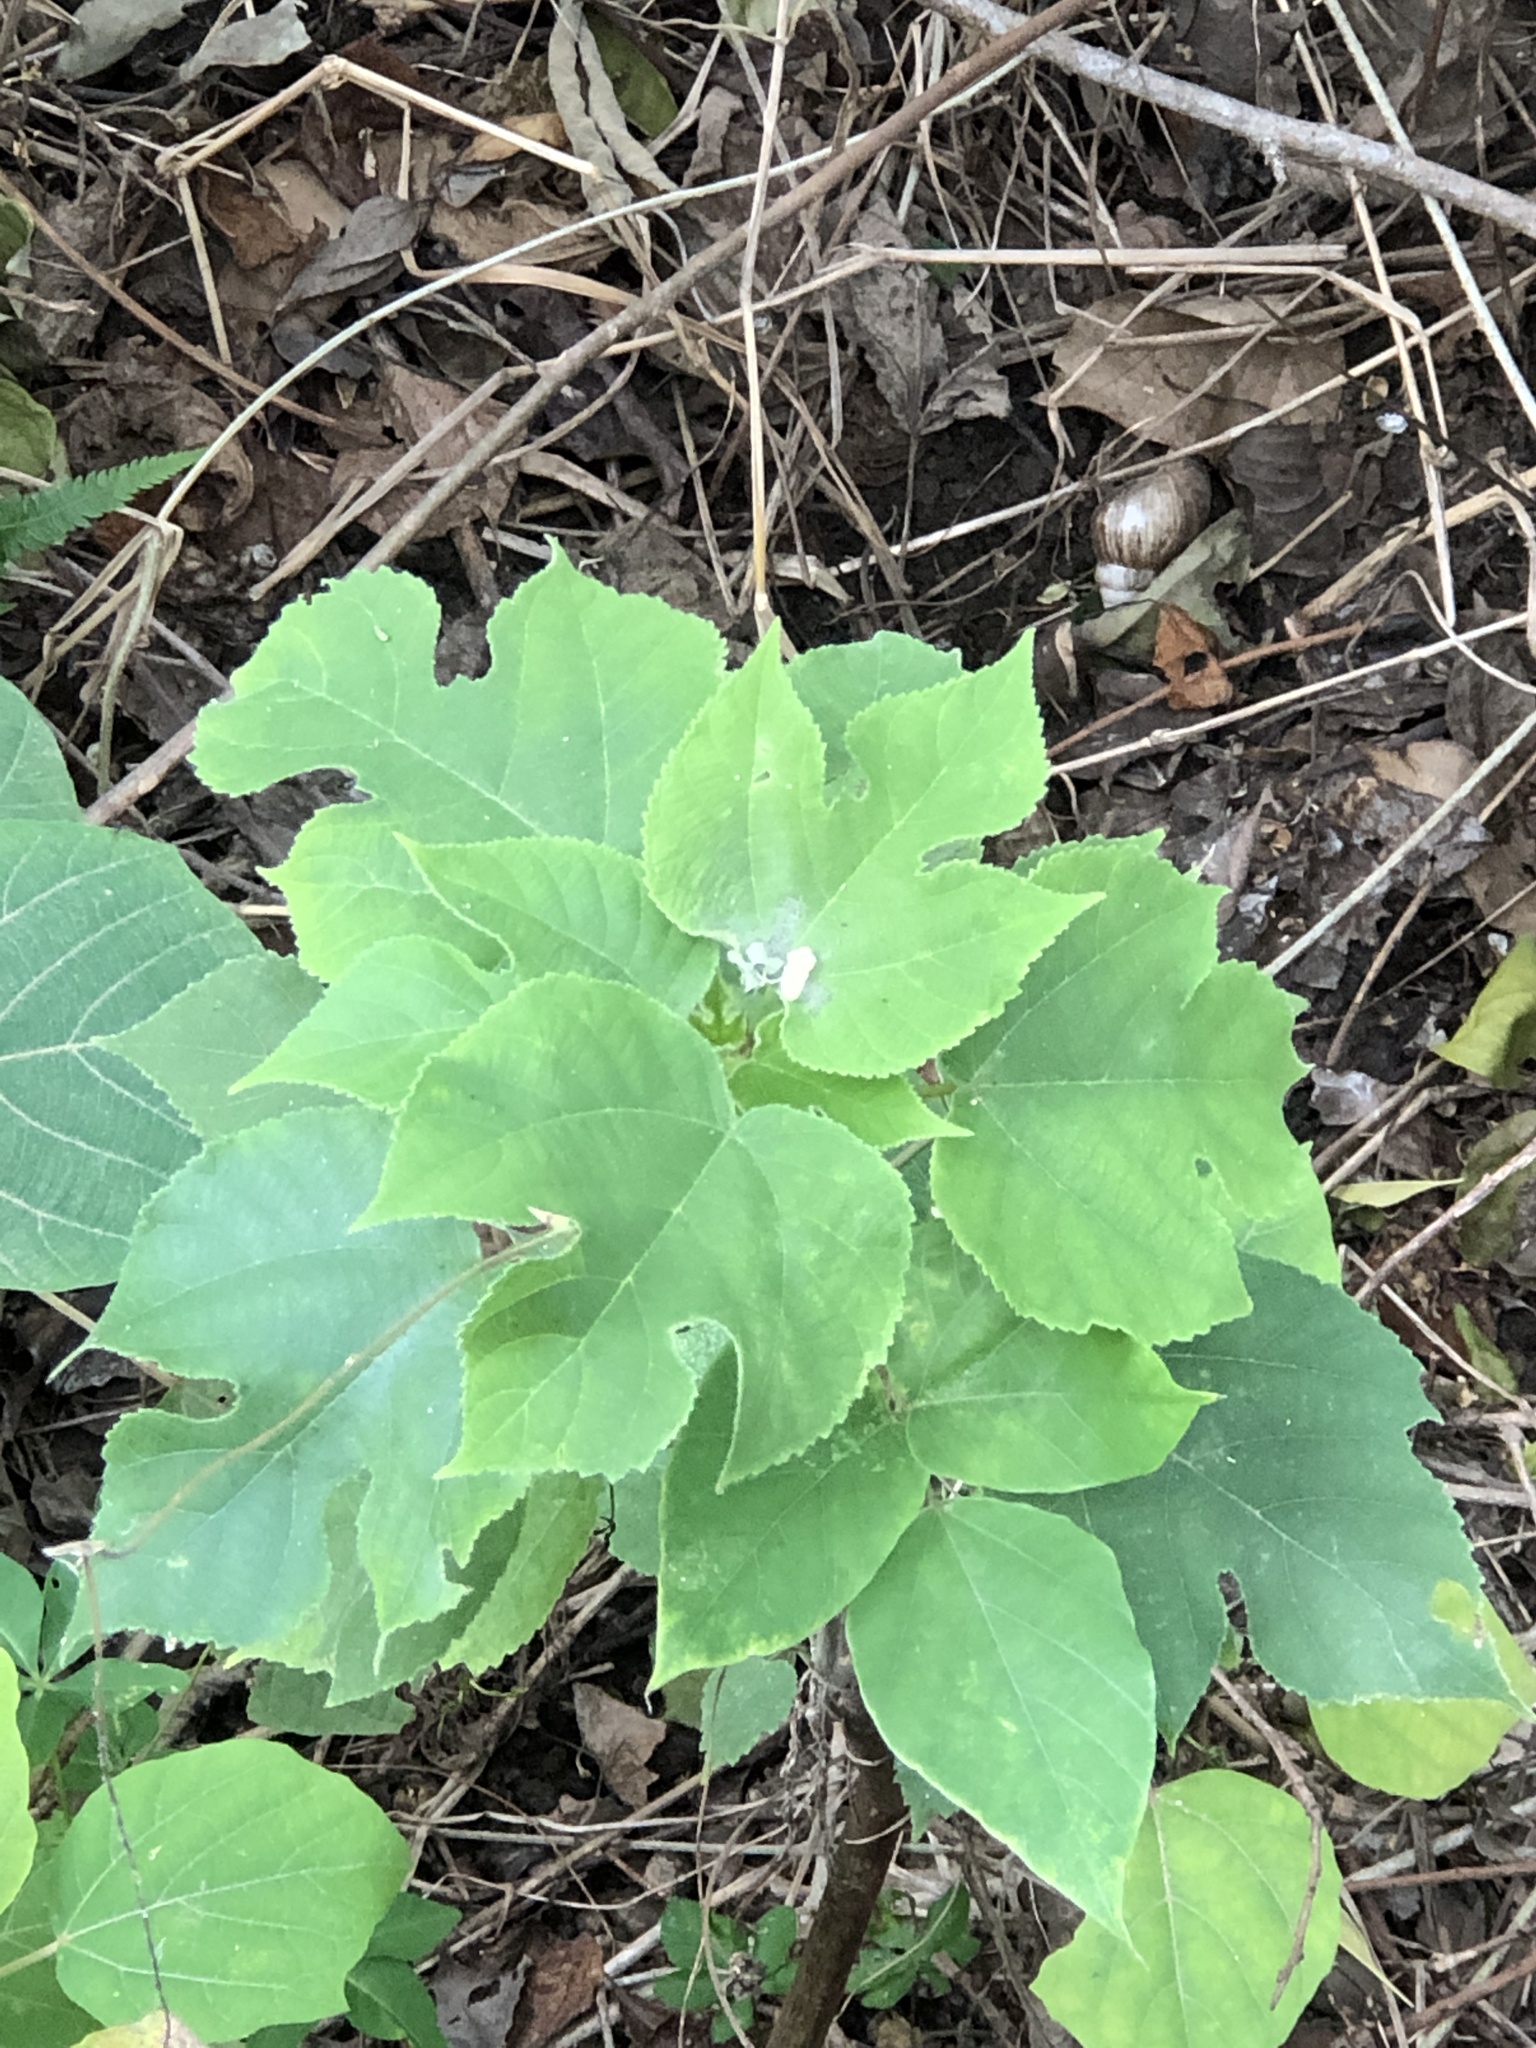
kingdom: Plantae
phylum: Tracheophyta
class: Magnoliopsida
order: Rosales
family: Moraceae
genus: Broussonetia
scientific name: Broussonetia papyrifera
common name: Paper mulberry
